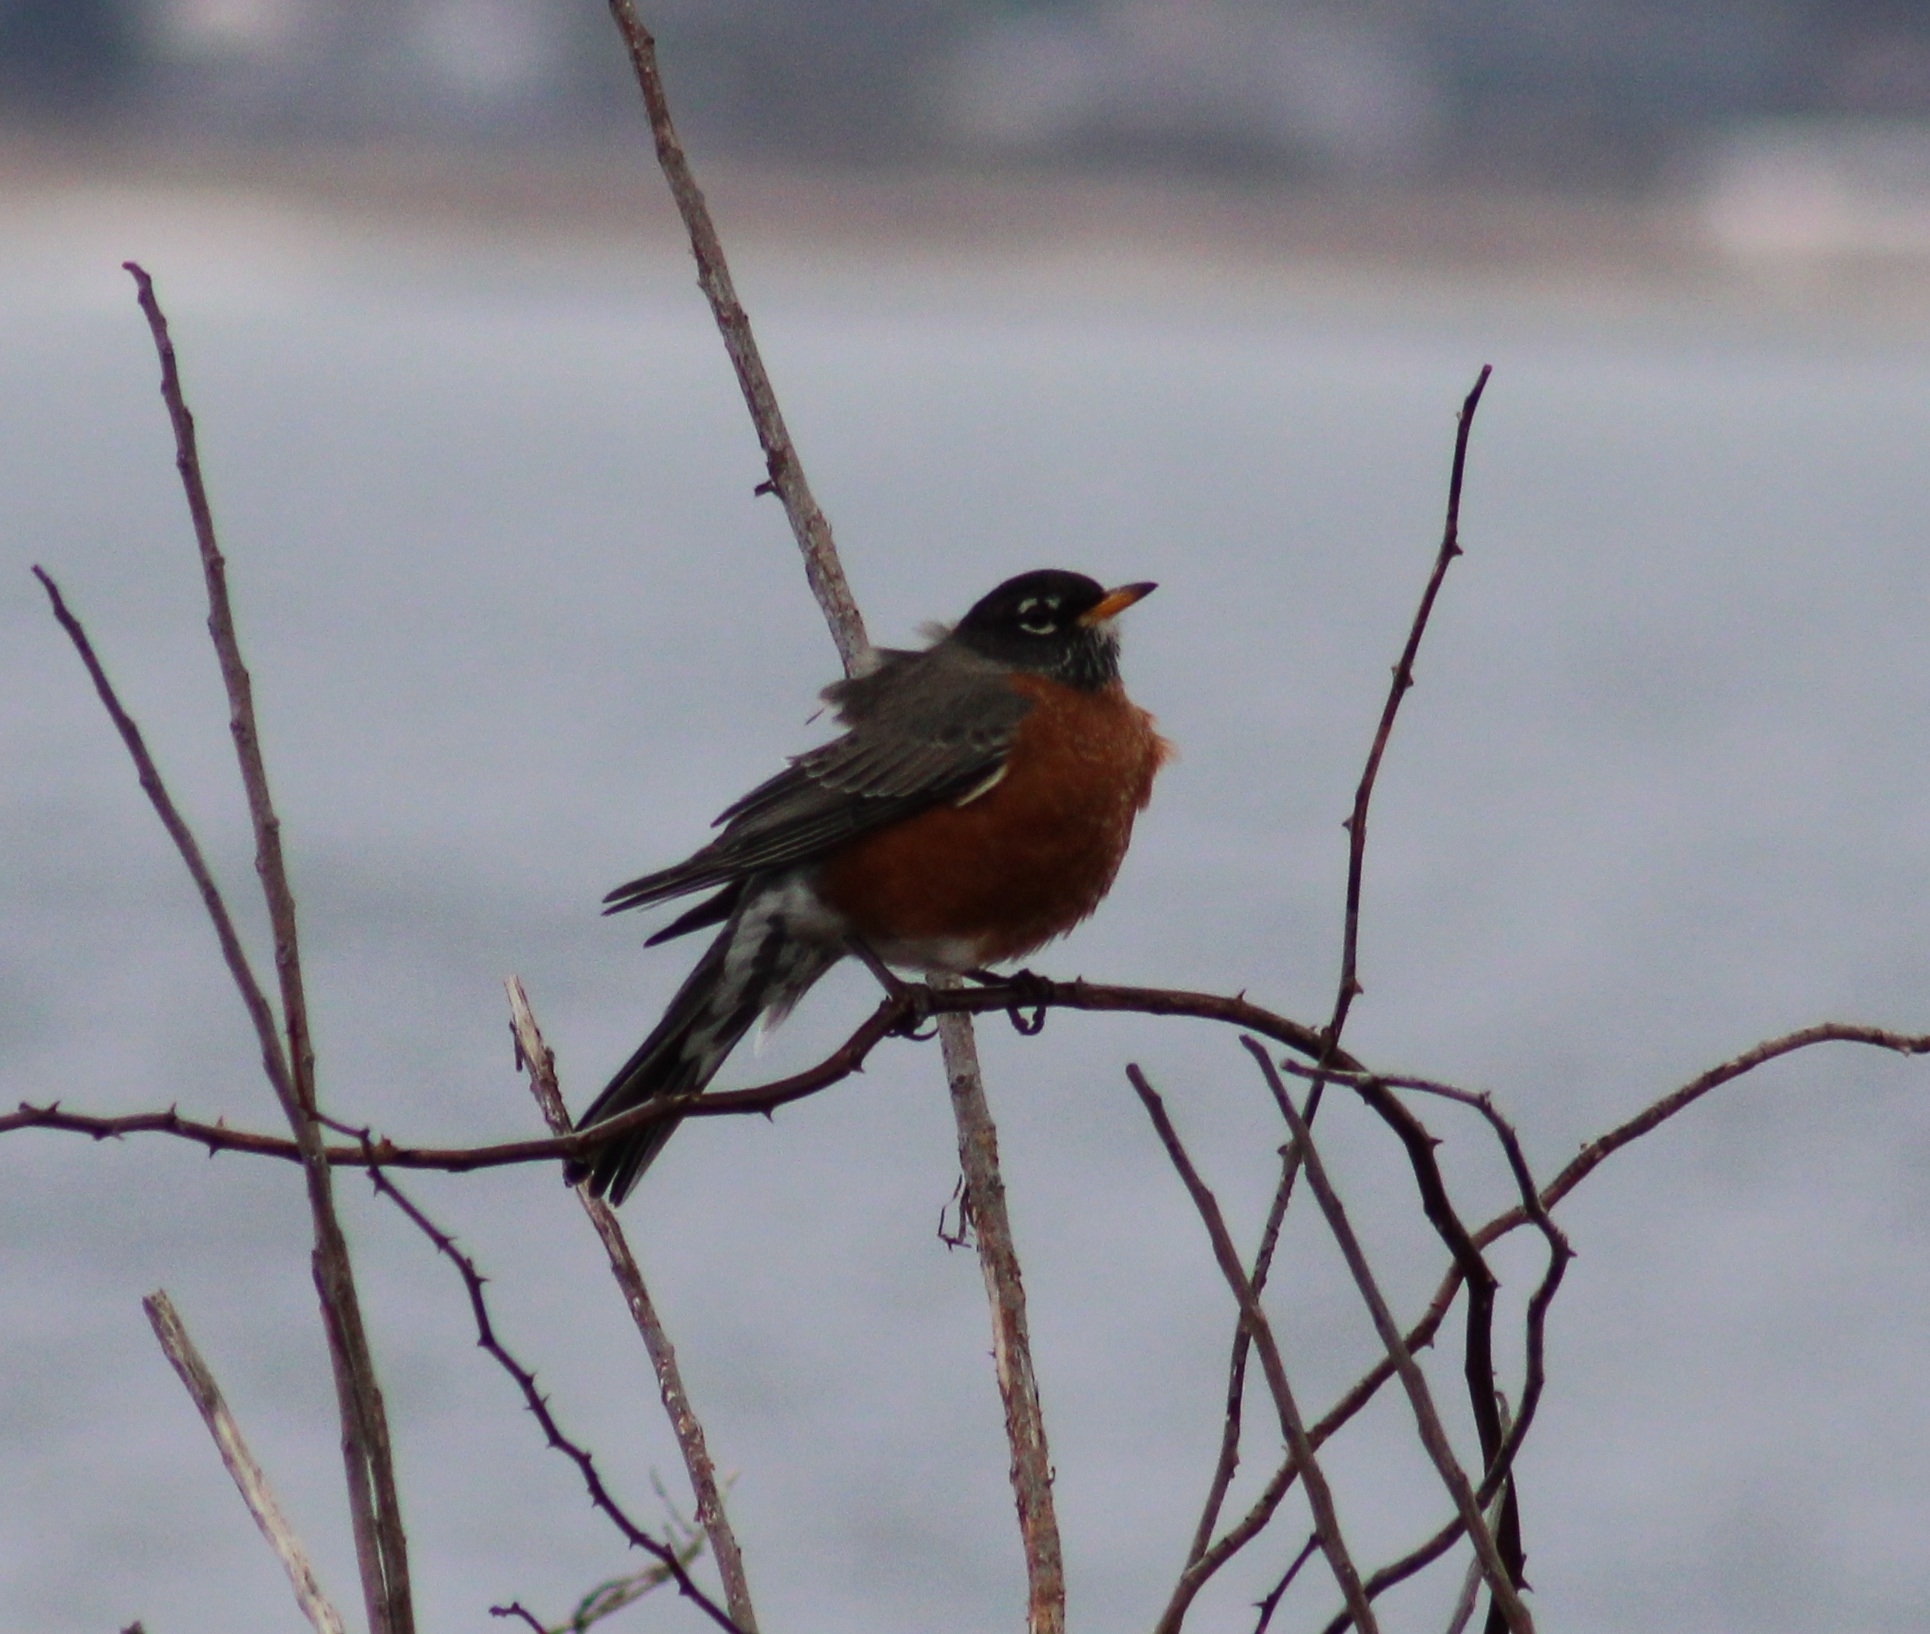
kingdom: Animalia
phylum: Chordata
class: Aves
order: Passeriformes
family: Turdidae
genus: Turdus
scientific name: Turdus migratorius
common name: American robin
